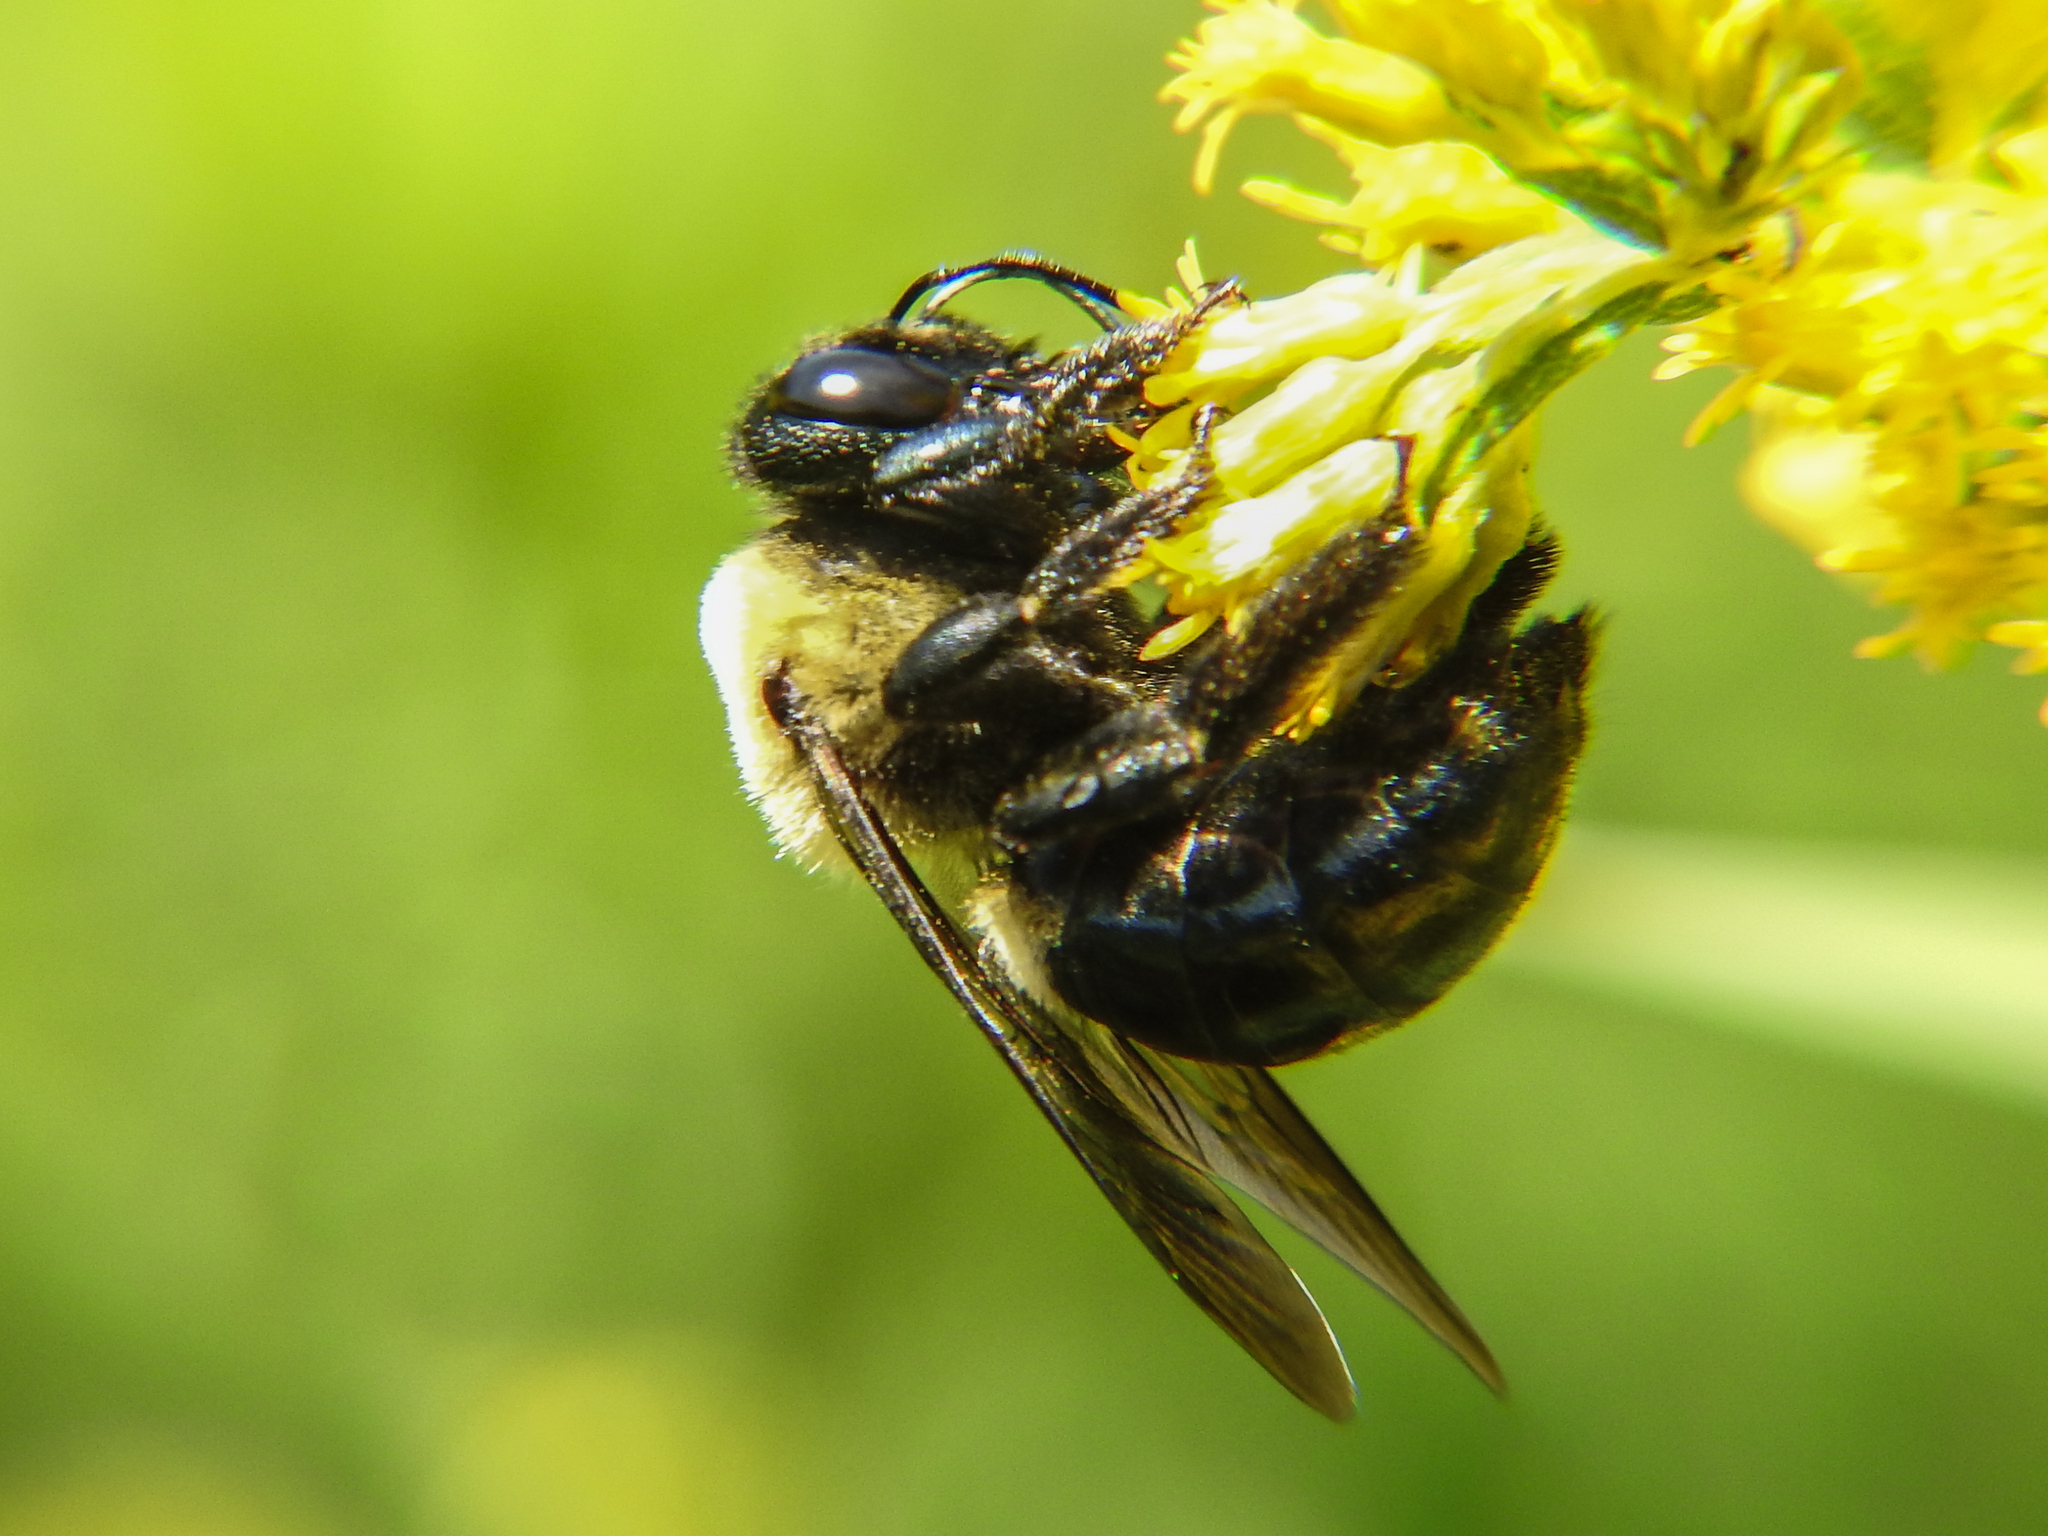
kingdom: Animalia
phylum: Arthropoda
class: Insecta
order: Hymenoptera
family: Apidae
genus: Xylocopa
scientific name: Xylocopa virginica
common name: Carpenter bee
